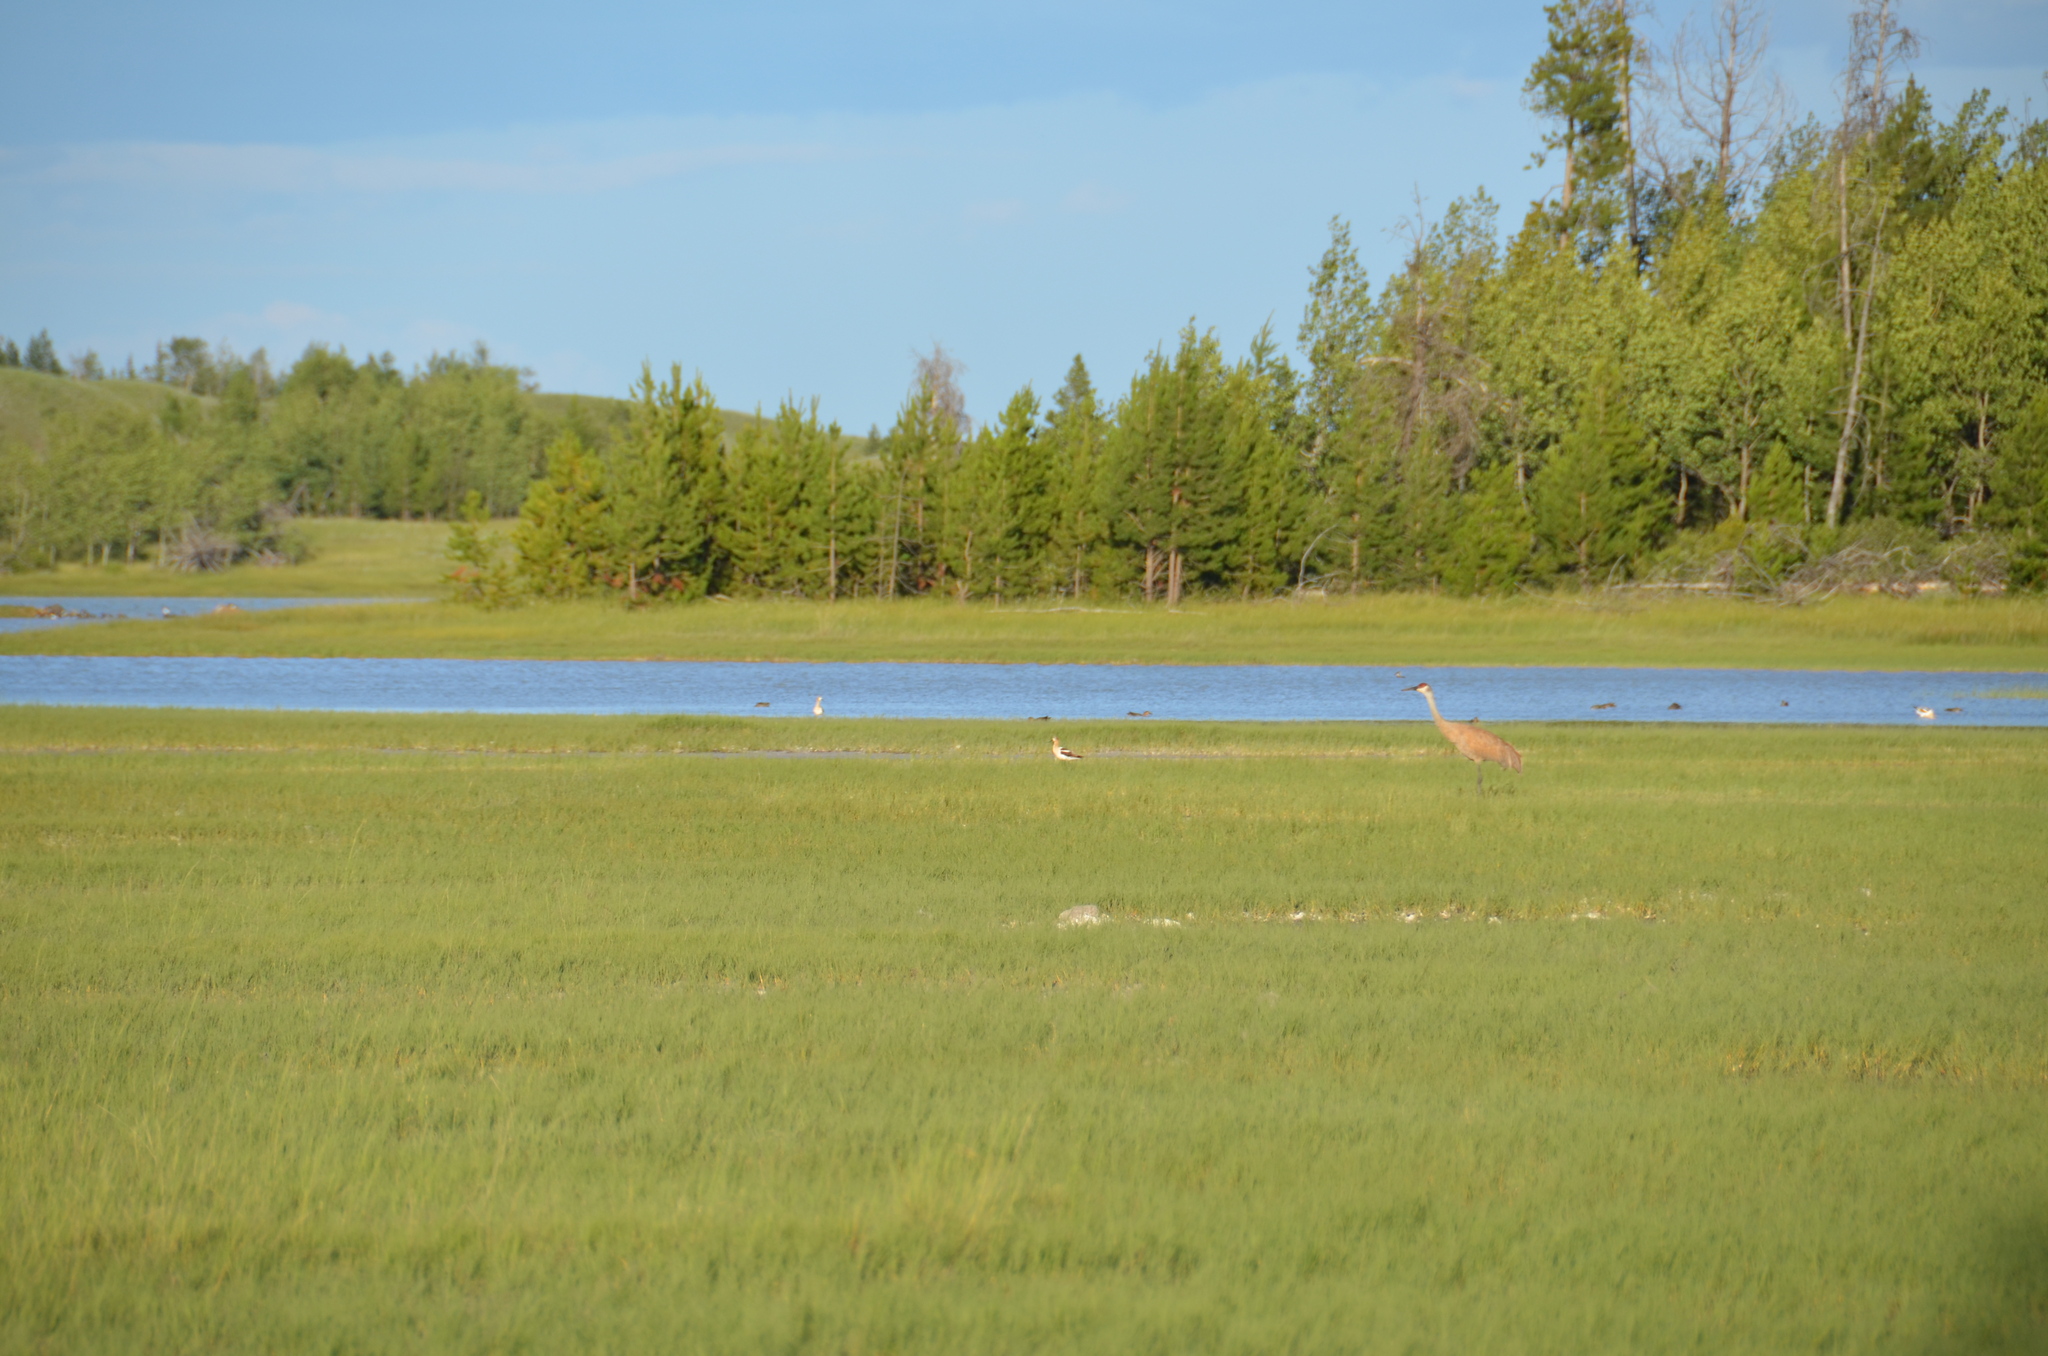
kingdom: Animalia
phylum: Chordata
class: Aves
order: Gruiformes
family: Gruidae
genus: Grus
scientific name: Grus canadensis
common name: Sandhill crane
